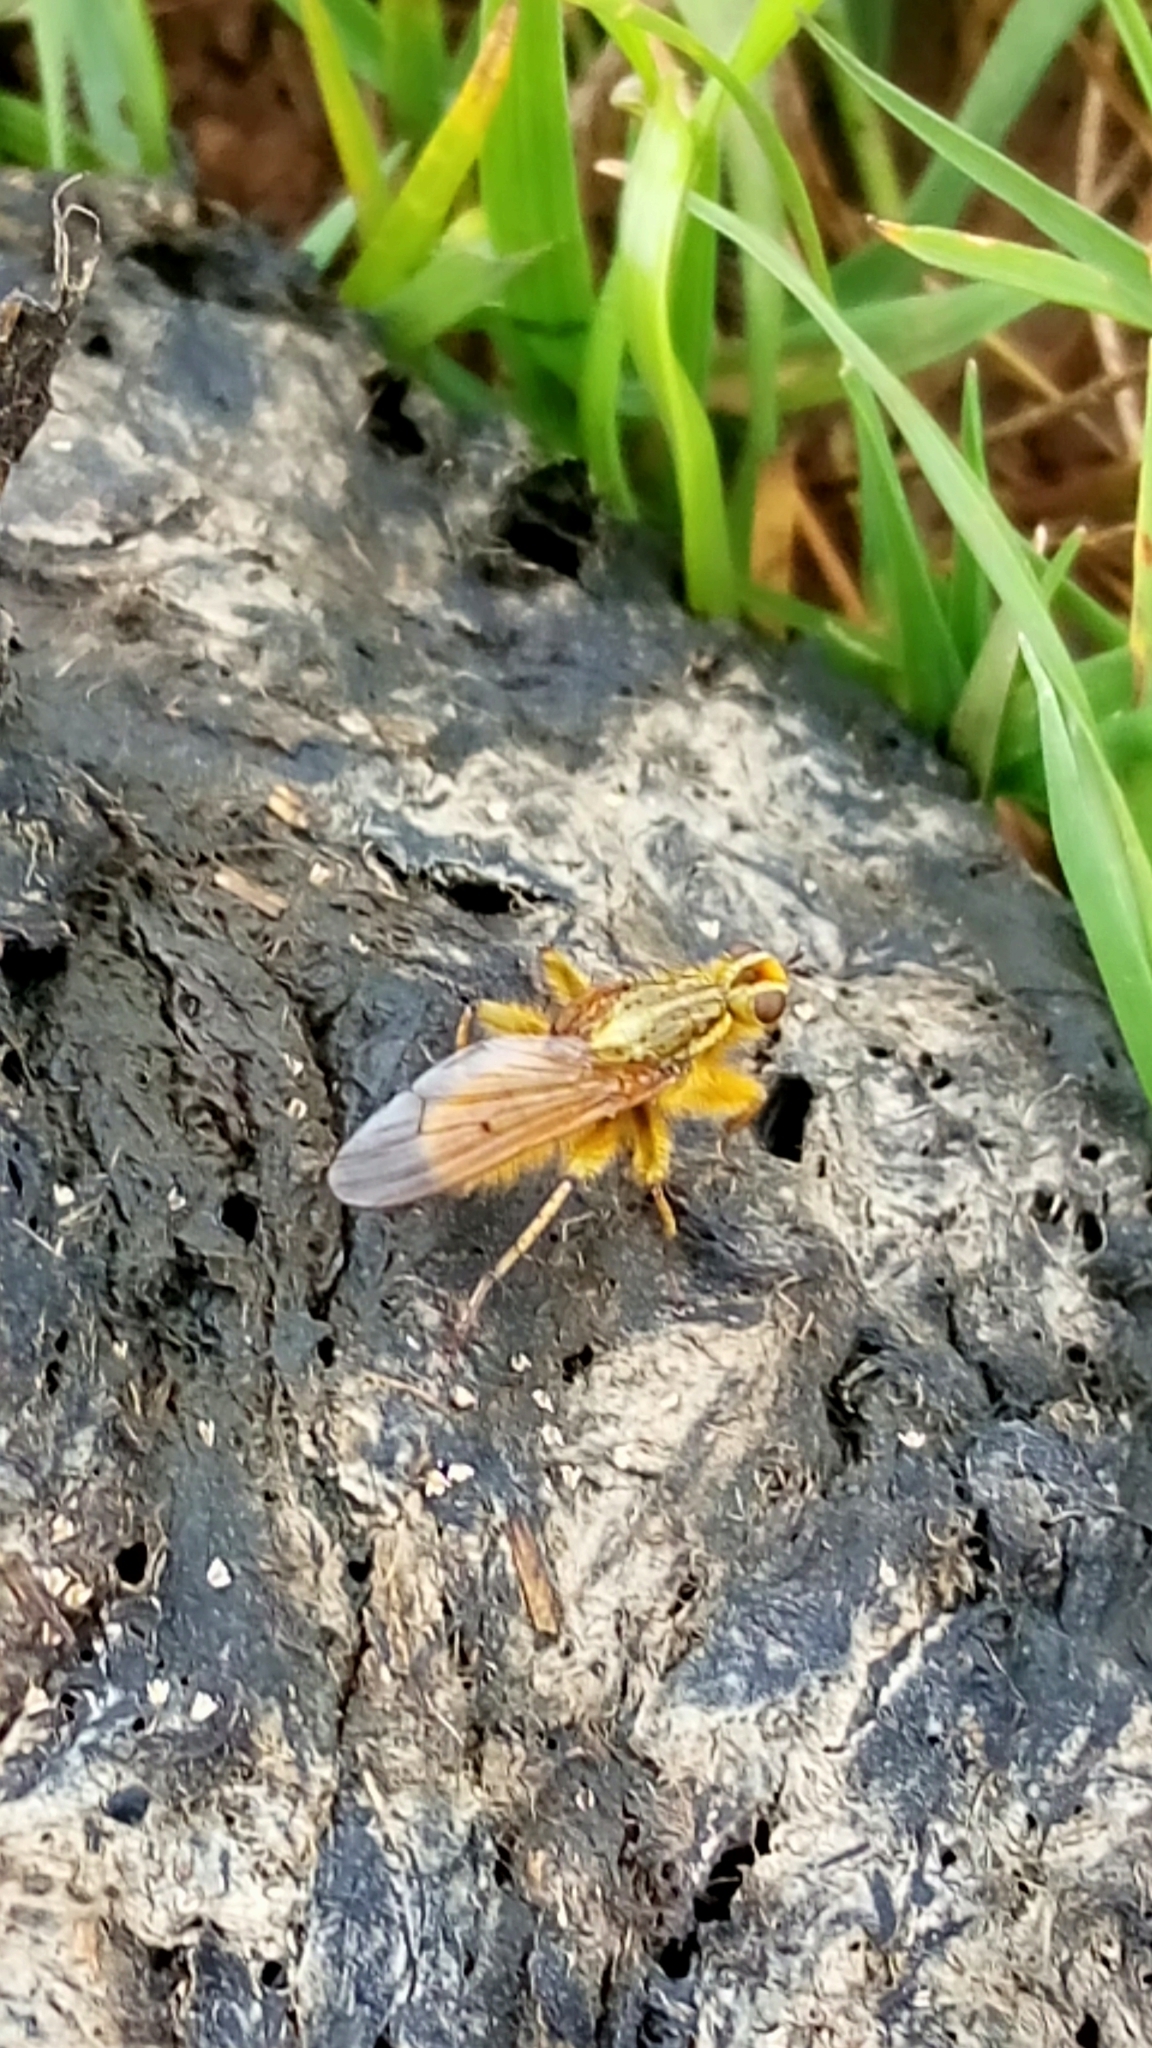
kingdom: Animalia
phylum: Arthropoda
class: Insecta
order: Diptera
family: Scathophagidae
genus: Scathophaga
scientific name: Scathophaga stercoraria
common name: Yellow dung fly
